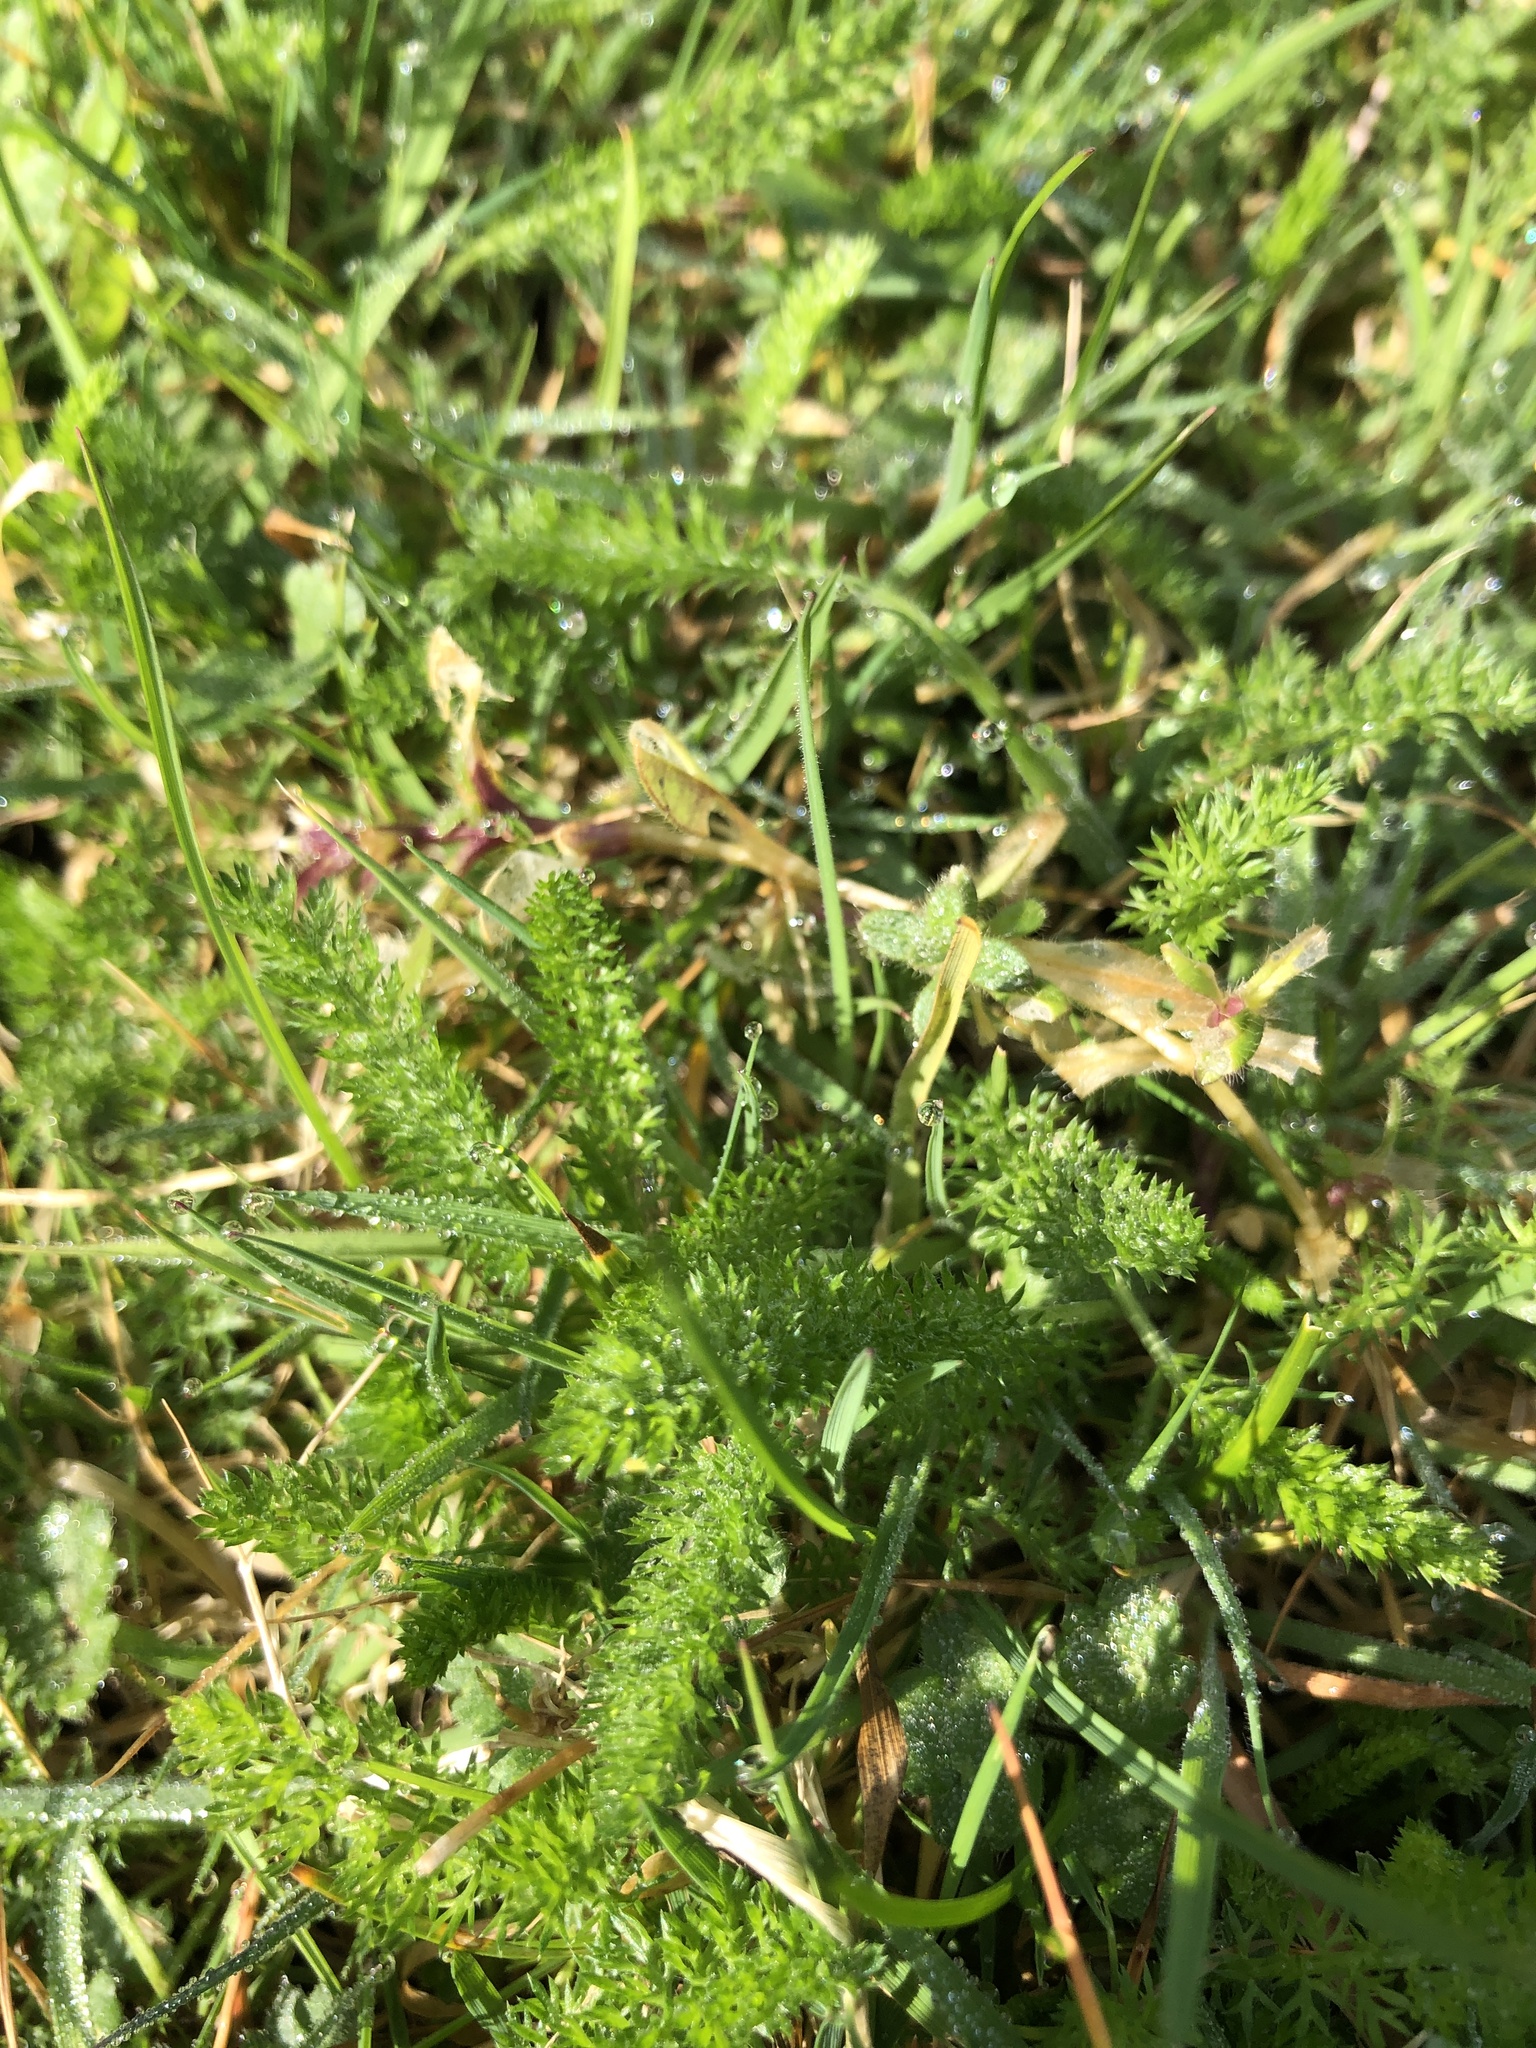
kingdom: Plantae
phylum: Tracheophyta
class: Magnoliopsida
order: Asterales
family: Asteraceae
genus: Achillea
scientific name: Achillea millefolium
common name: Yarrow
